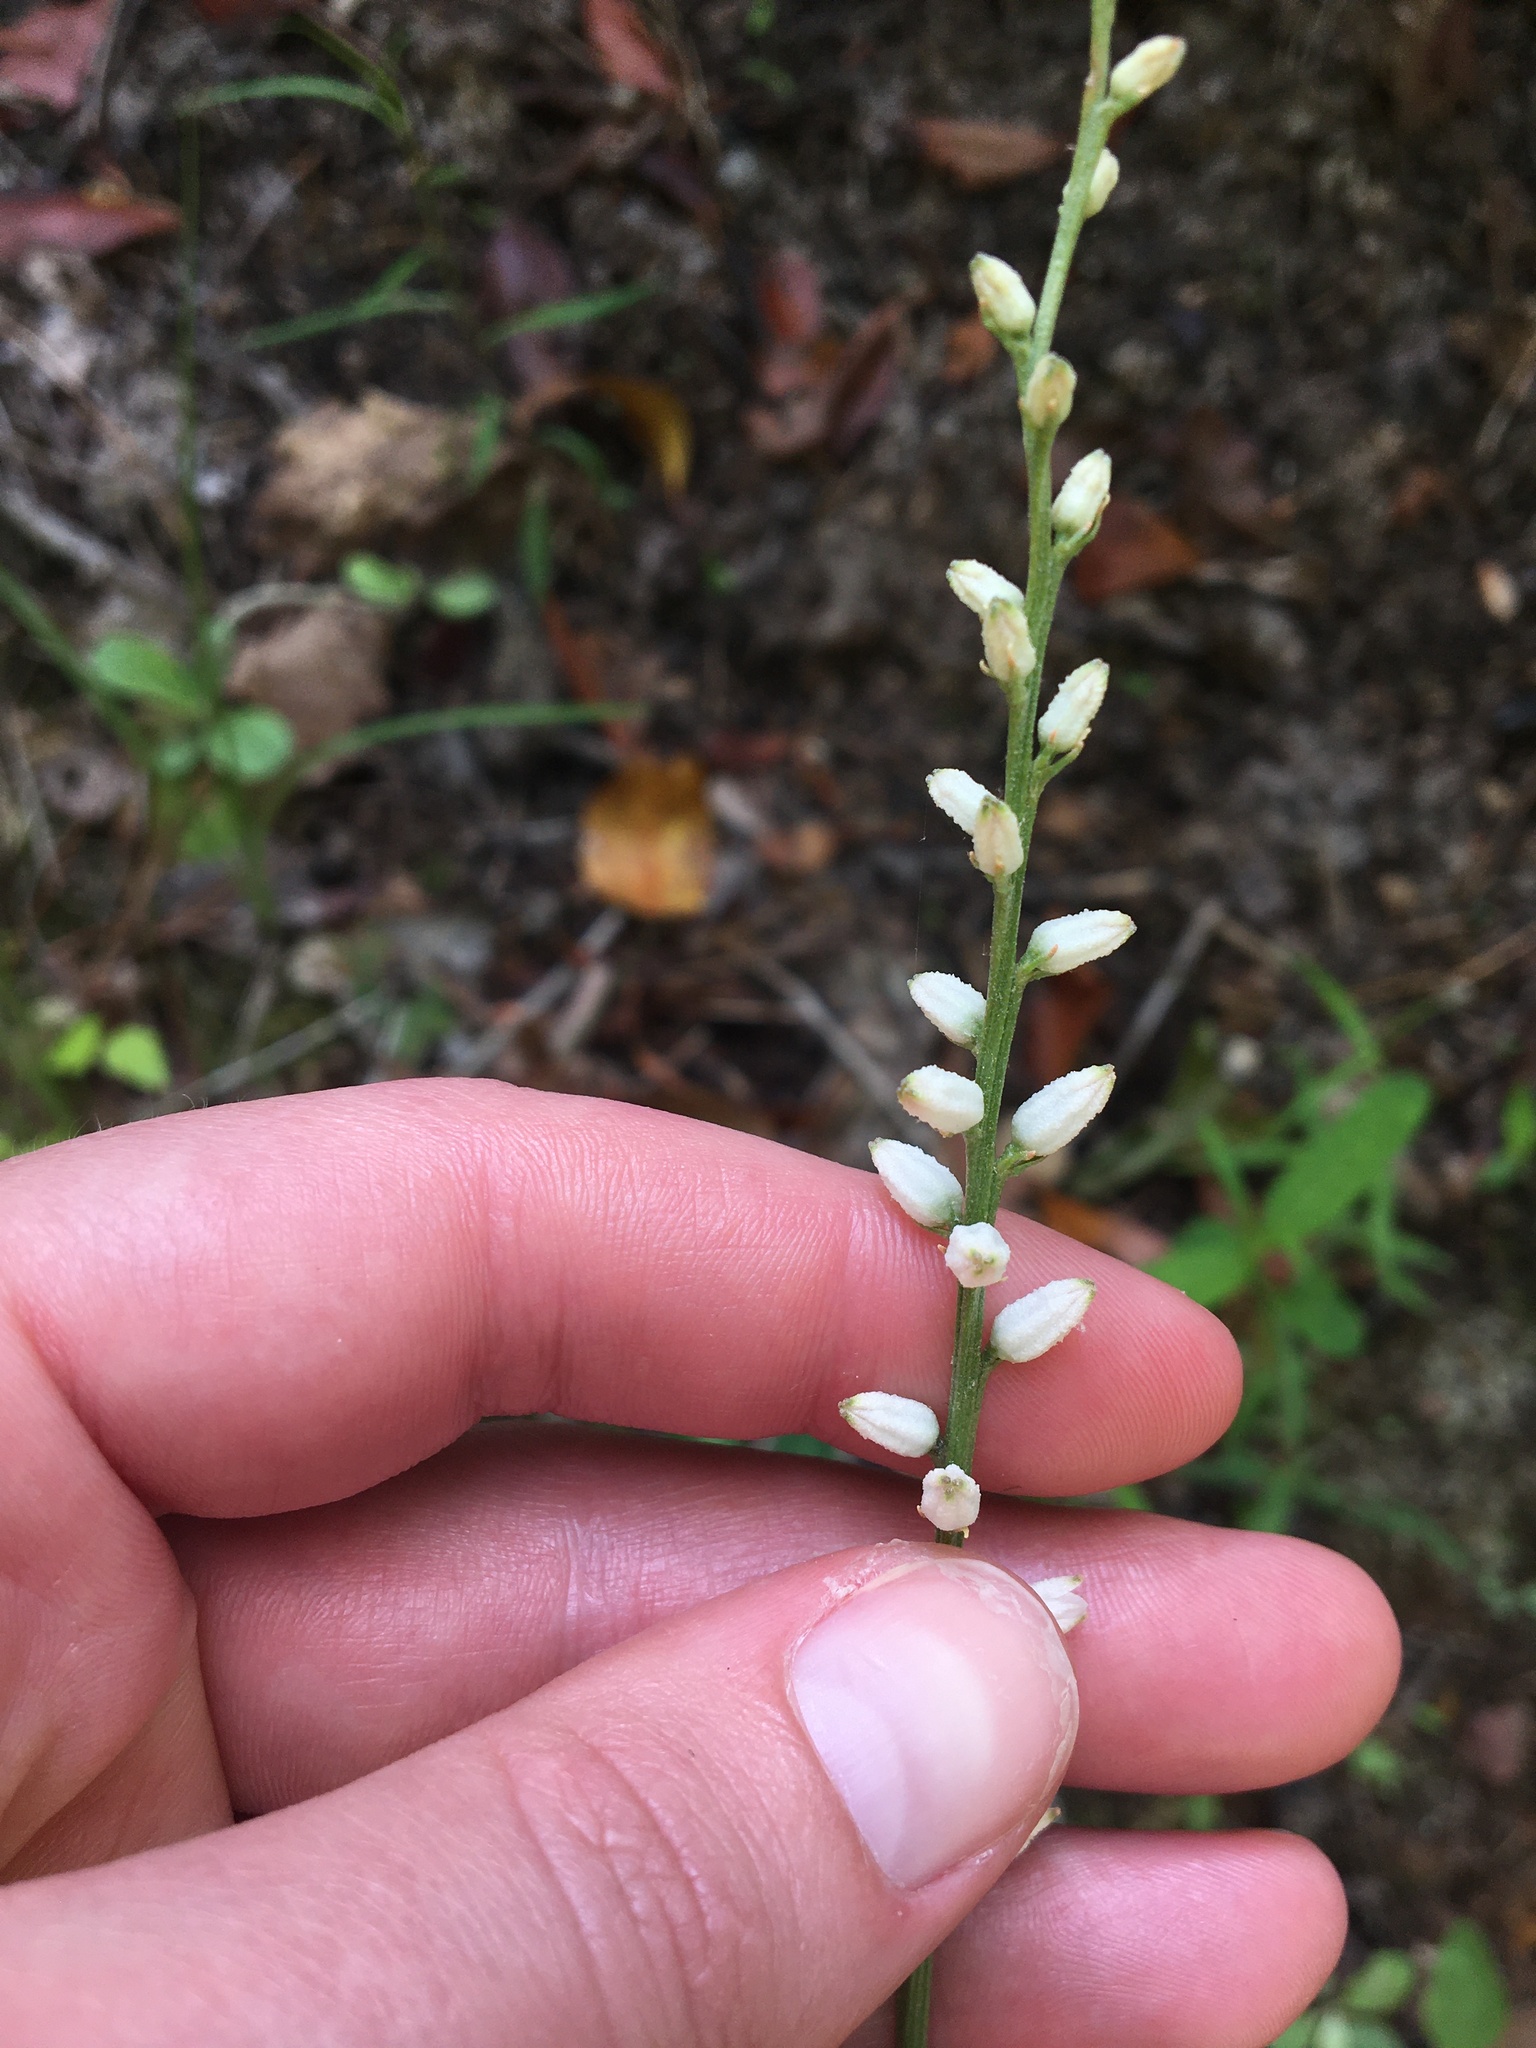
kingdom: Plantae
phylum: Tracheophyta
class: Liliopsida
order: Dioscoreales
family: Nartheciaceae
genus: Aletris
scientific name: Aletris farinosa
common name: Colicroot
